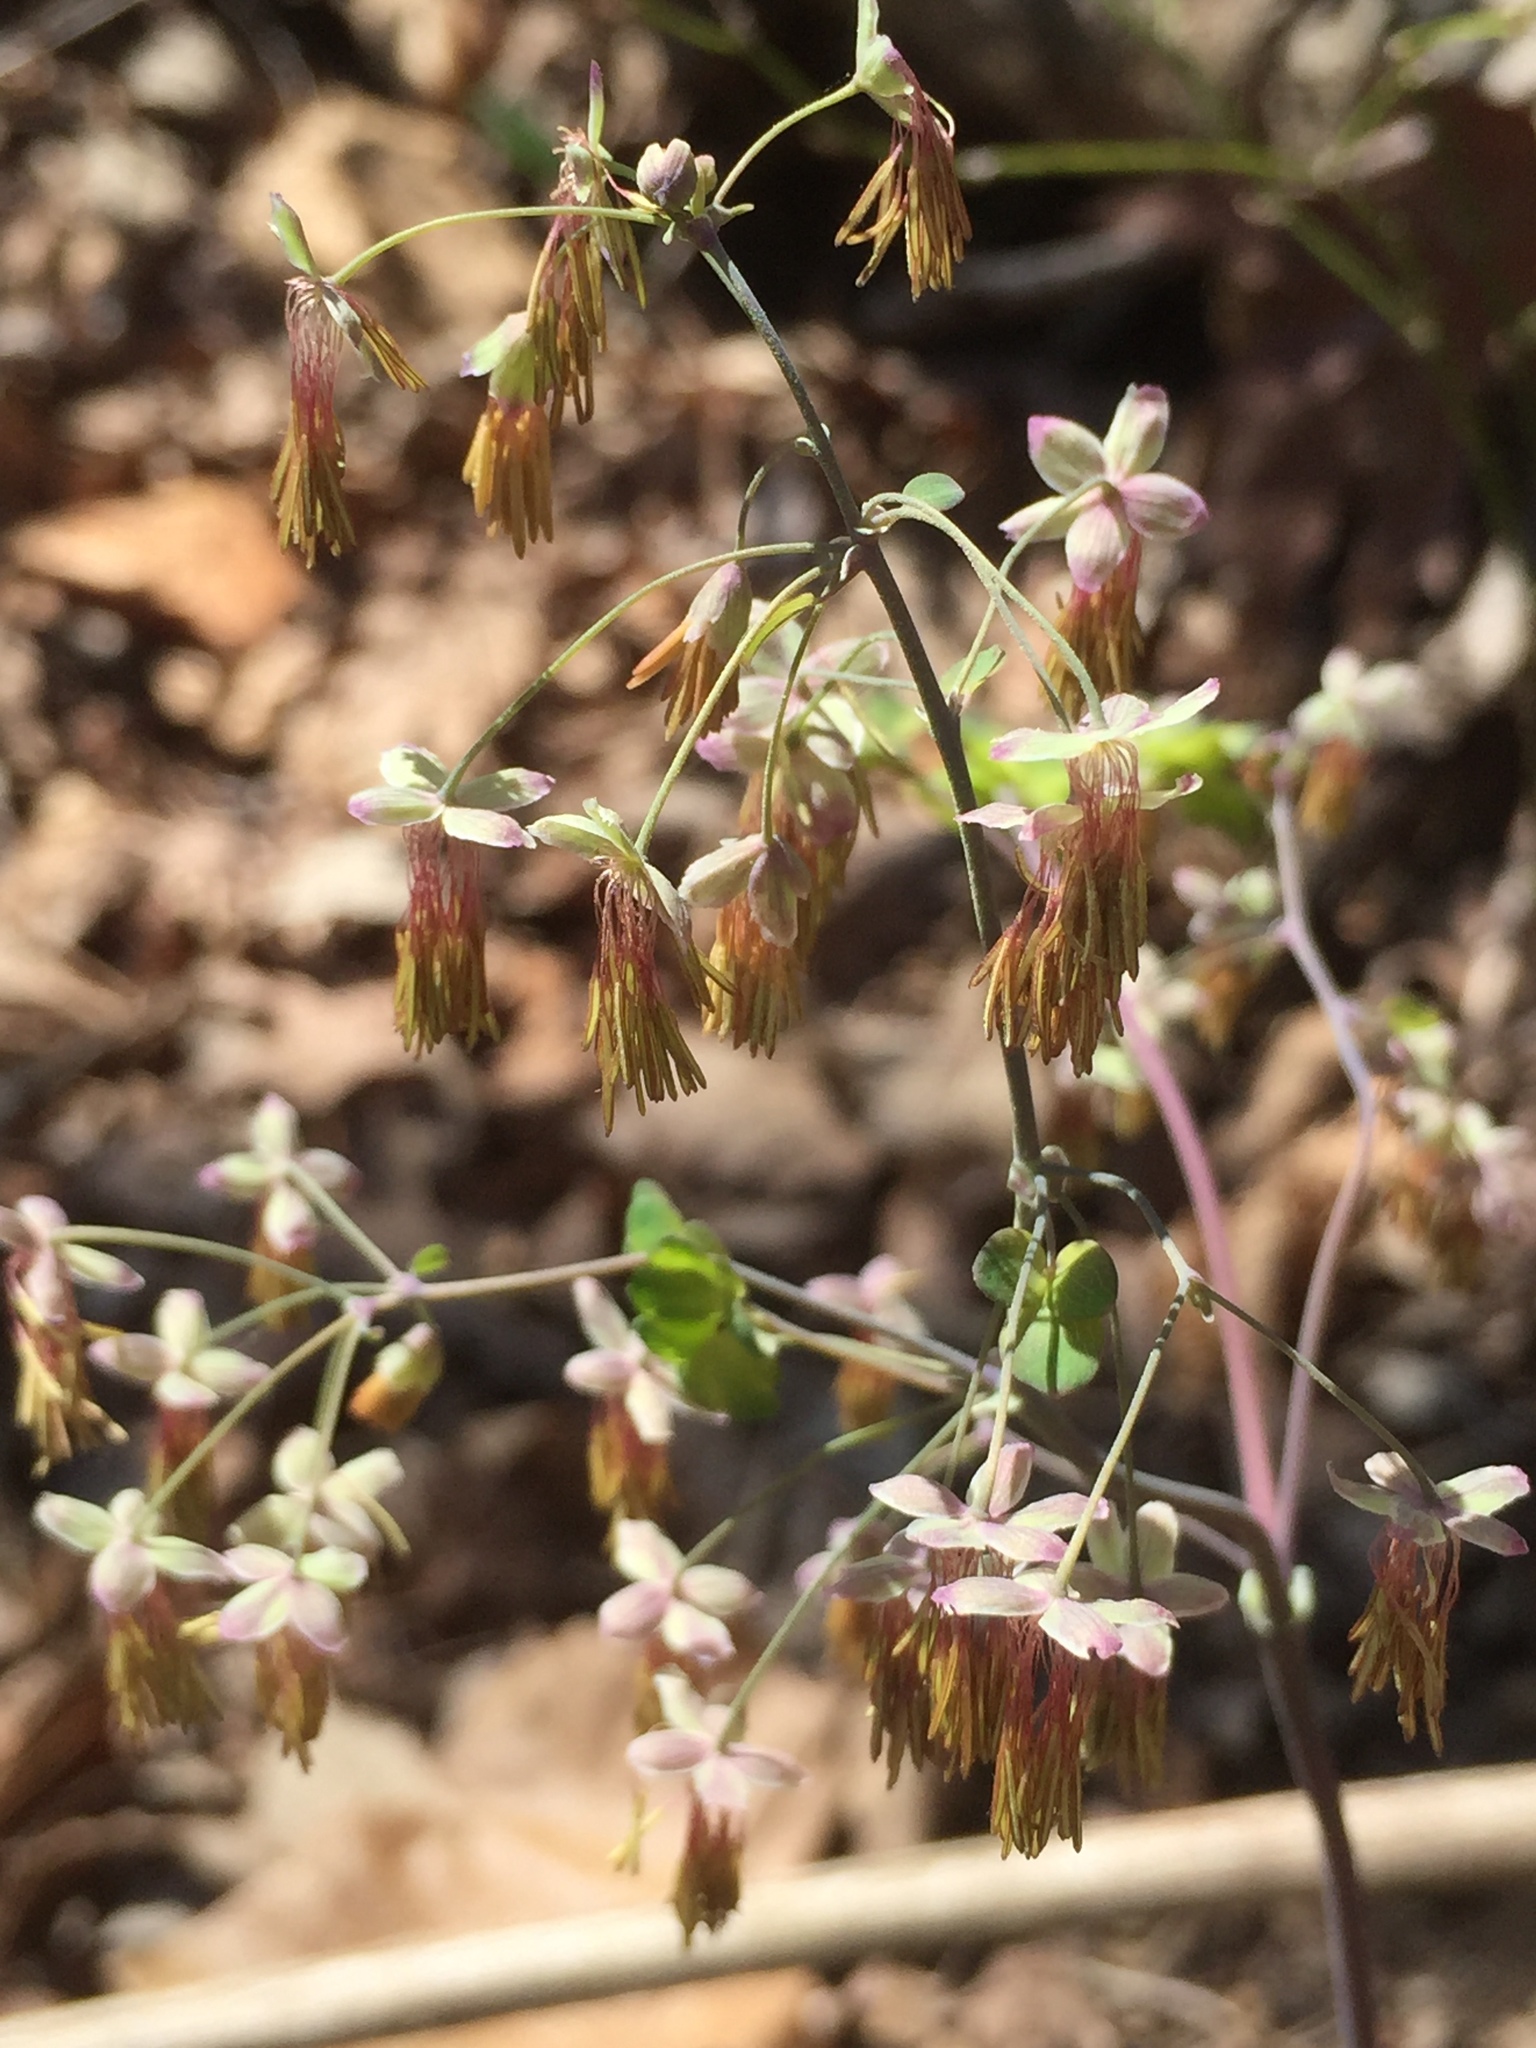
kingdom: Plantae
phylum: Tracheophyta
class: Magnoliopsida
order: Ranunculales
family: Ranunculaceae
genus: Thalictrum
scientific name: Thalictrum dioicum
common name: Early meadow-rue
